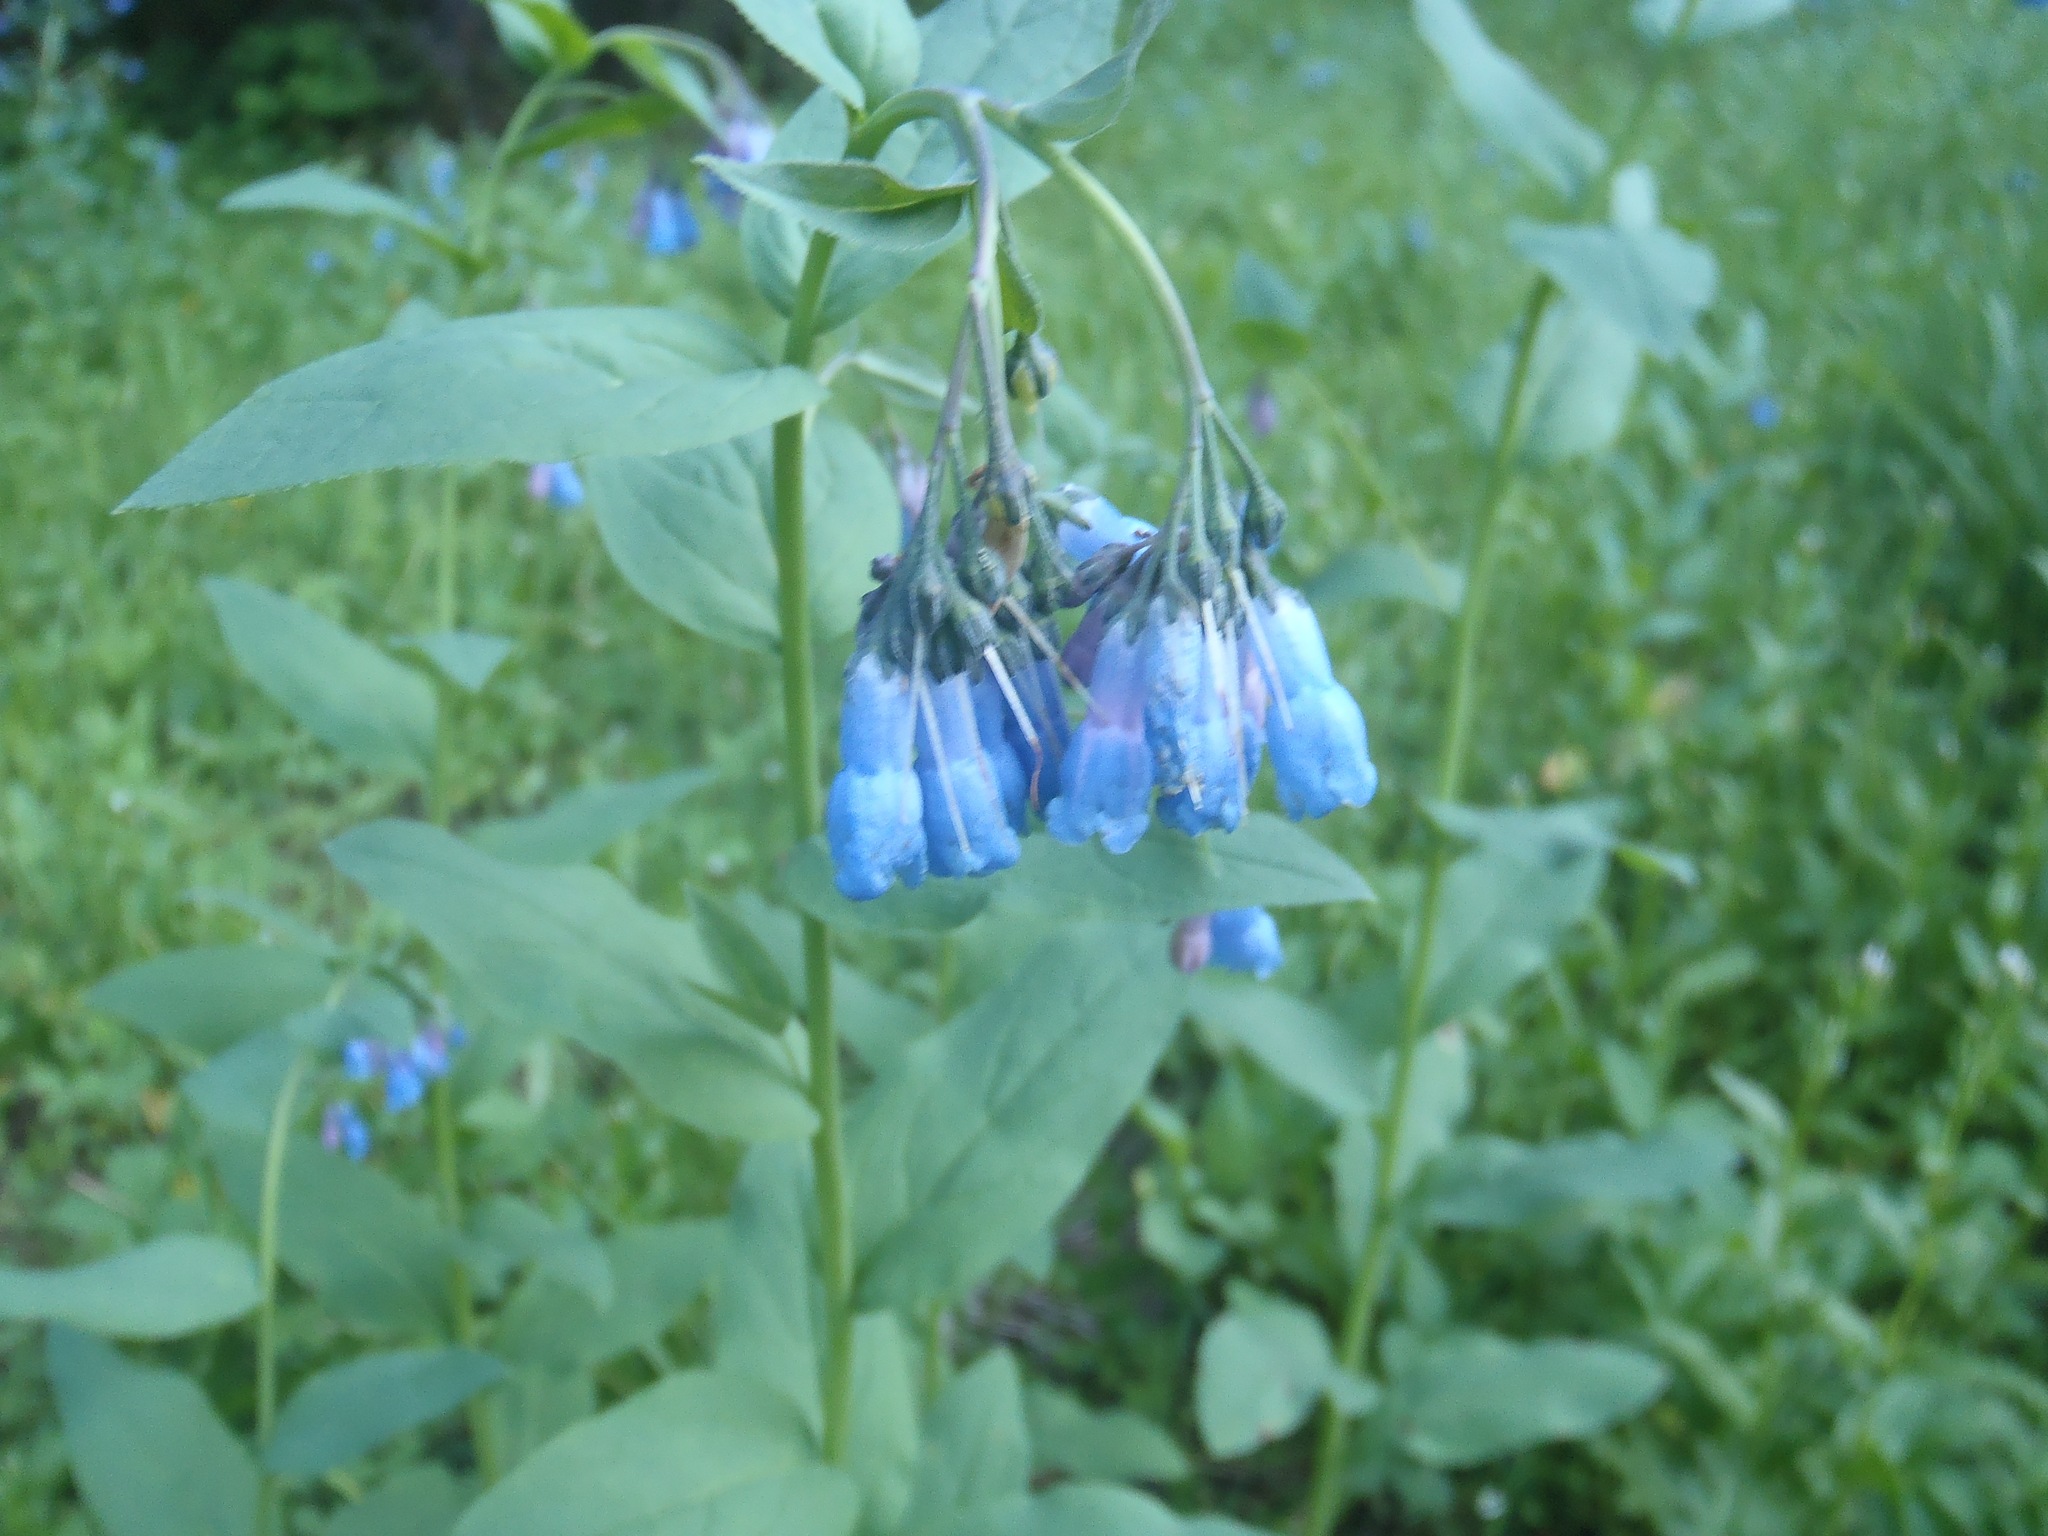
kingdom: Plantae
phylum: Tracheophyta
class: Magnoliopsida
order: Boraginales
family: Boraginaceae
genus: Mertensia
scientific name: Mertensia ciliata
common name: Tall chiming-bells
